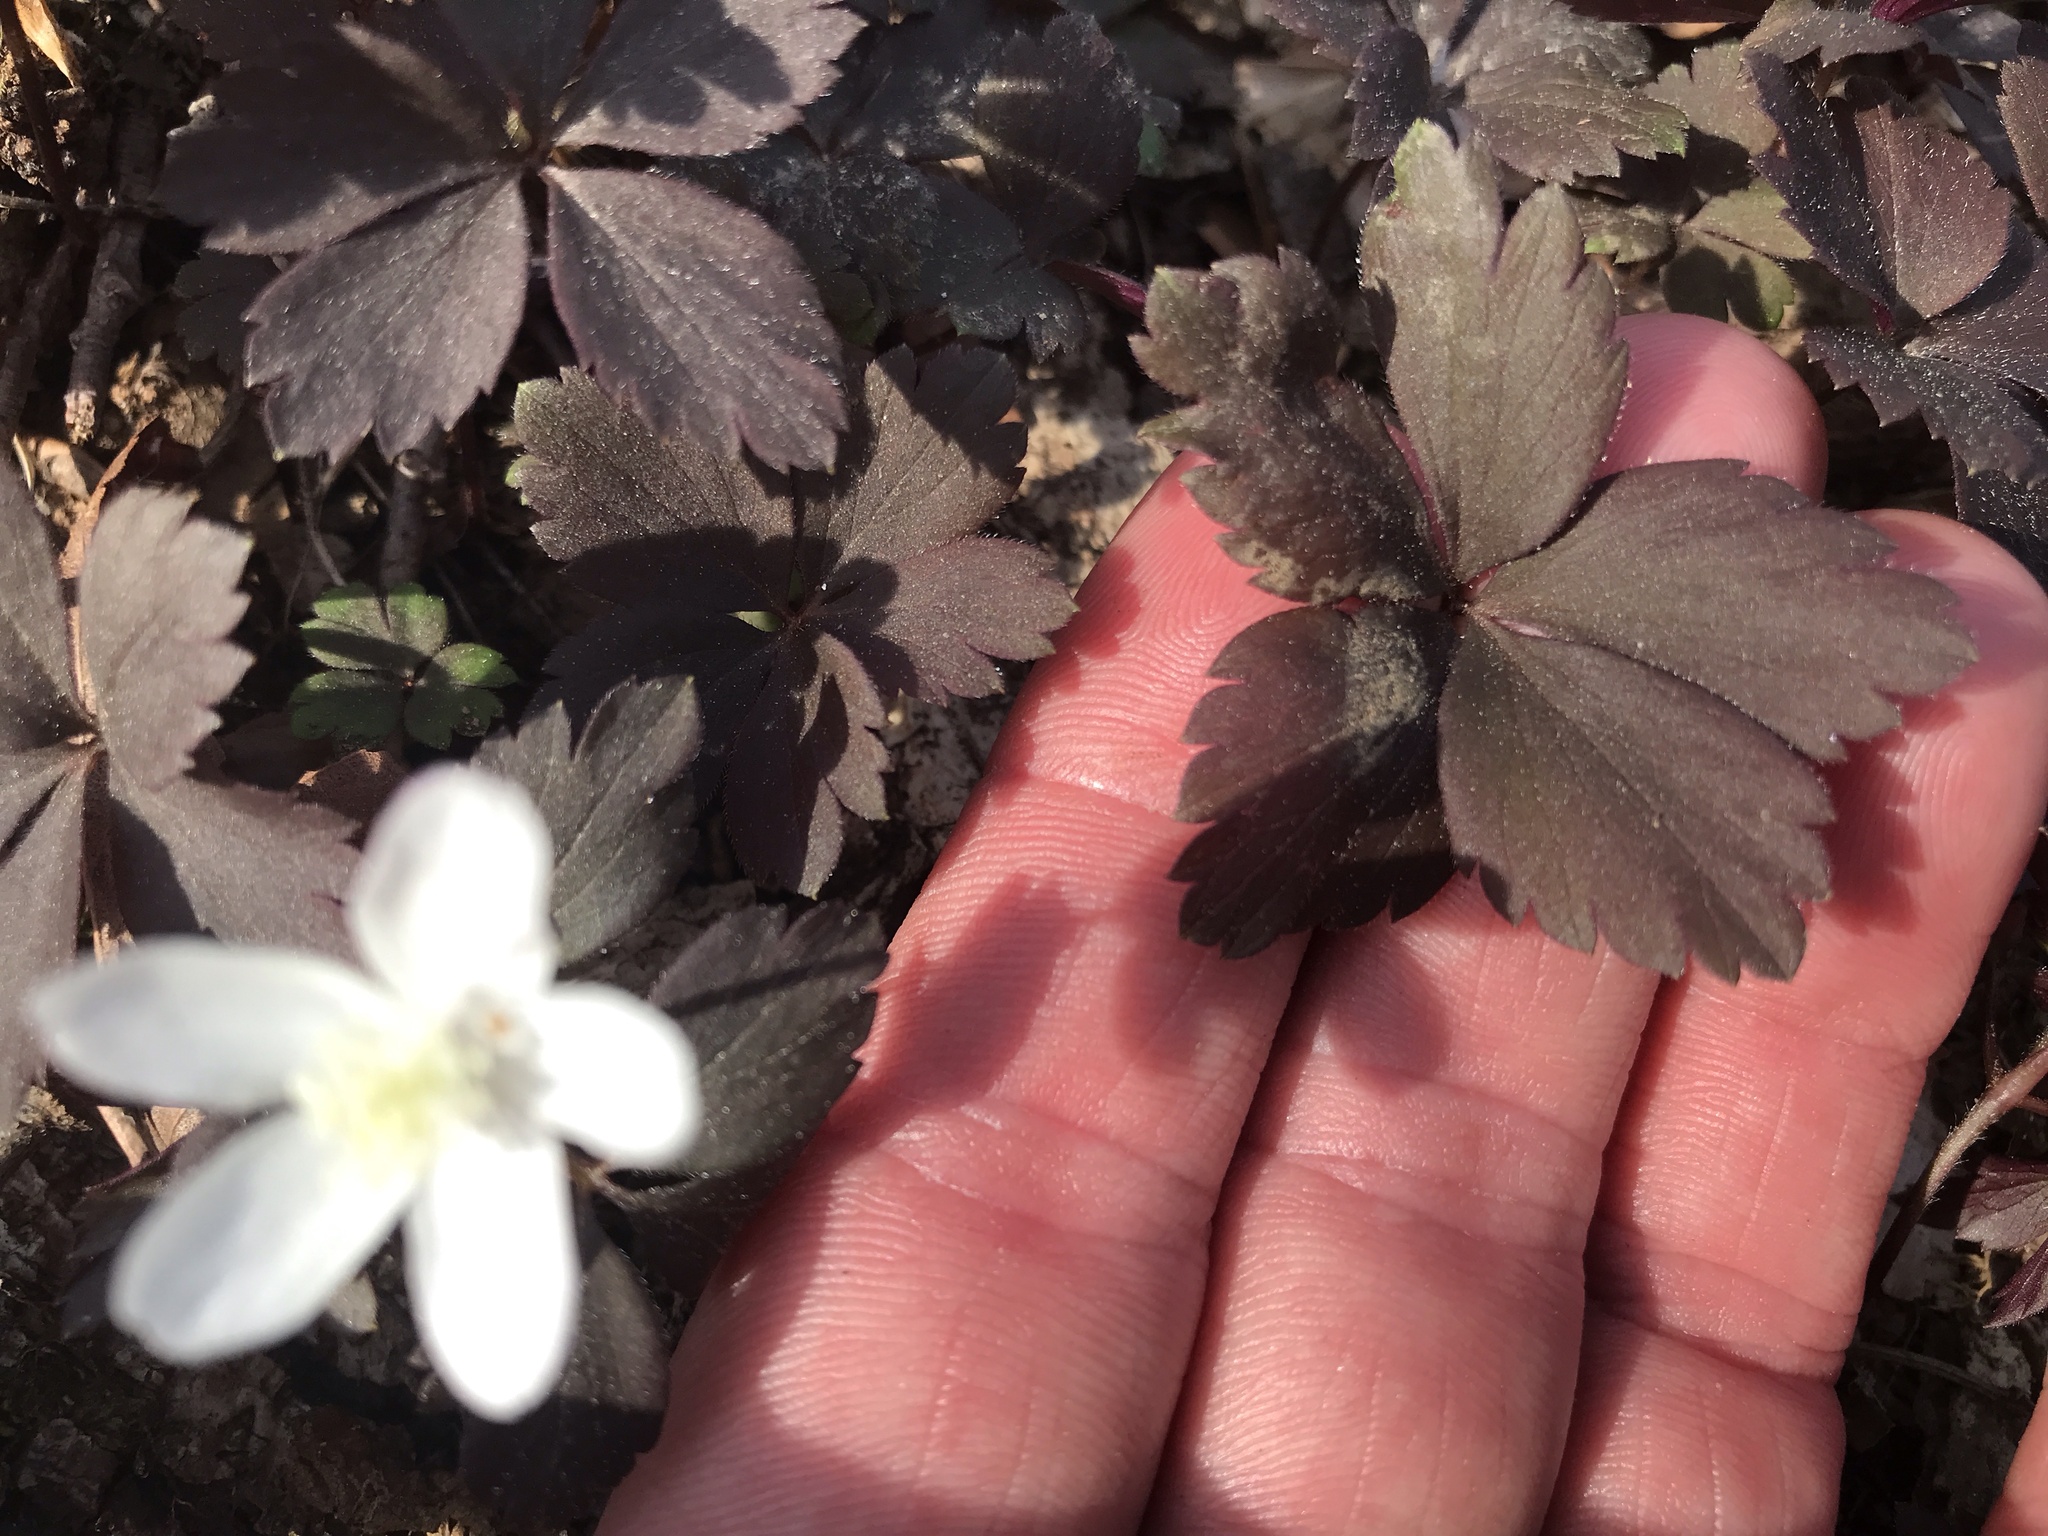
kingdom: Plantae
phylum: Tracheophyta
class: Magnoliopsida
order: Ranunculales
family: Ranunculaceae
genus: Anemone
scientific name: Anemone quinquefolia
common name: Wood anemone
